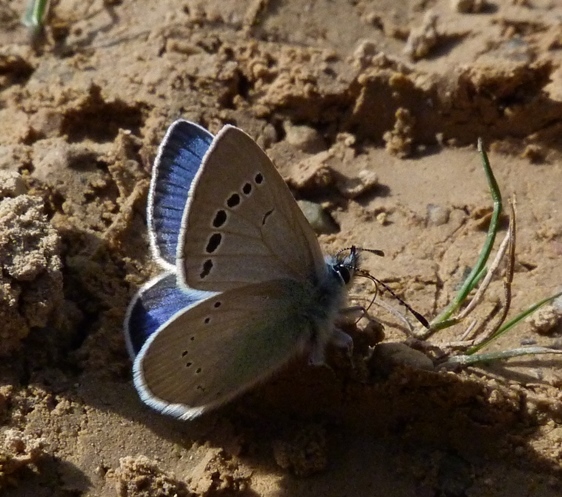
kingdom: Animalia
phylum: Arthropoda
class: Insecta
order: Lepidoptera
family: Lycaenidae
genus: Glaucopsyche
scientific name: Glaucopsyche alexis
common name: Green-underside blue
